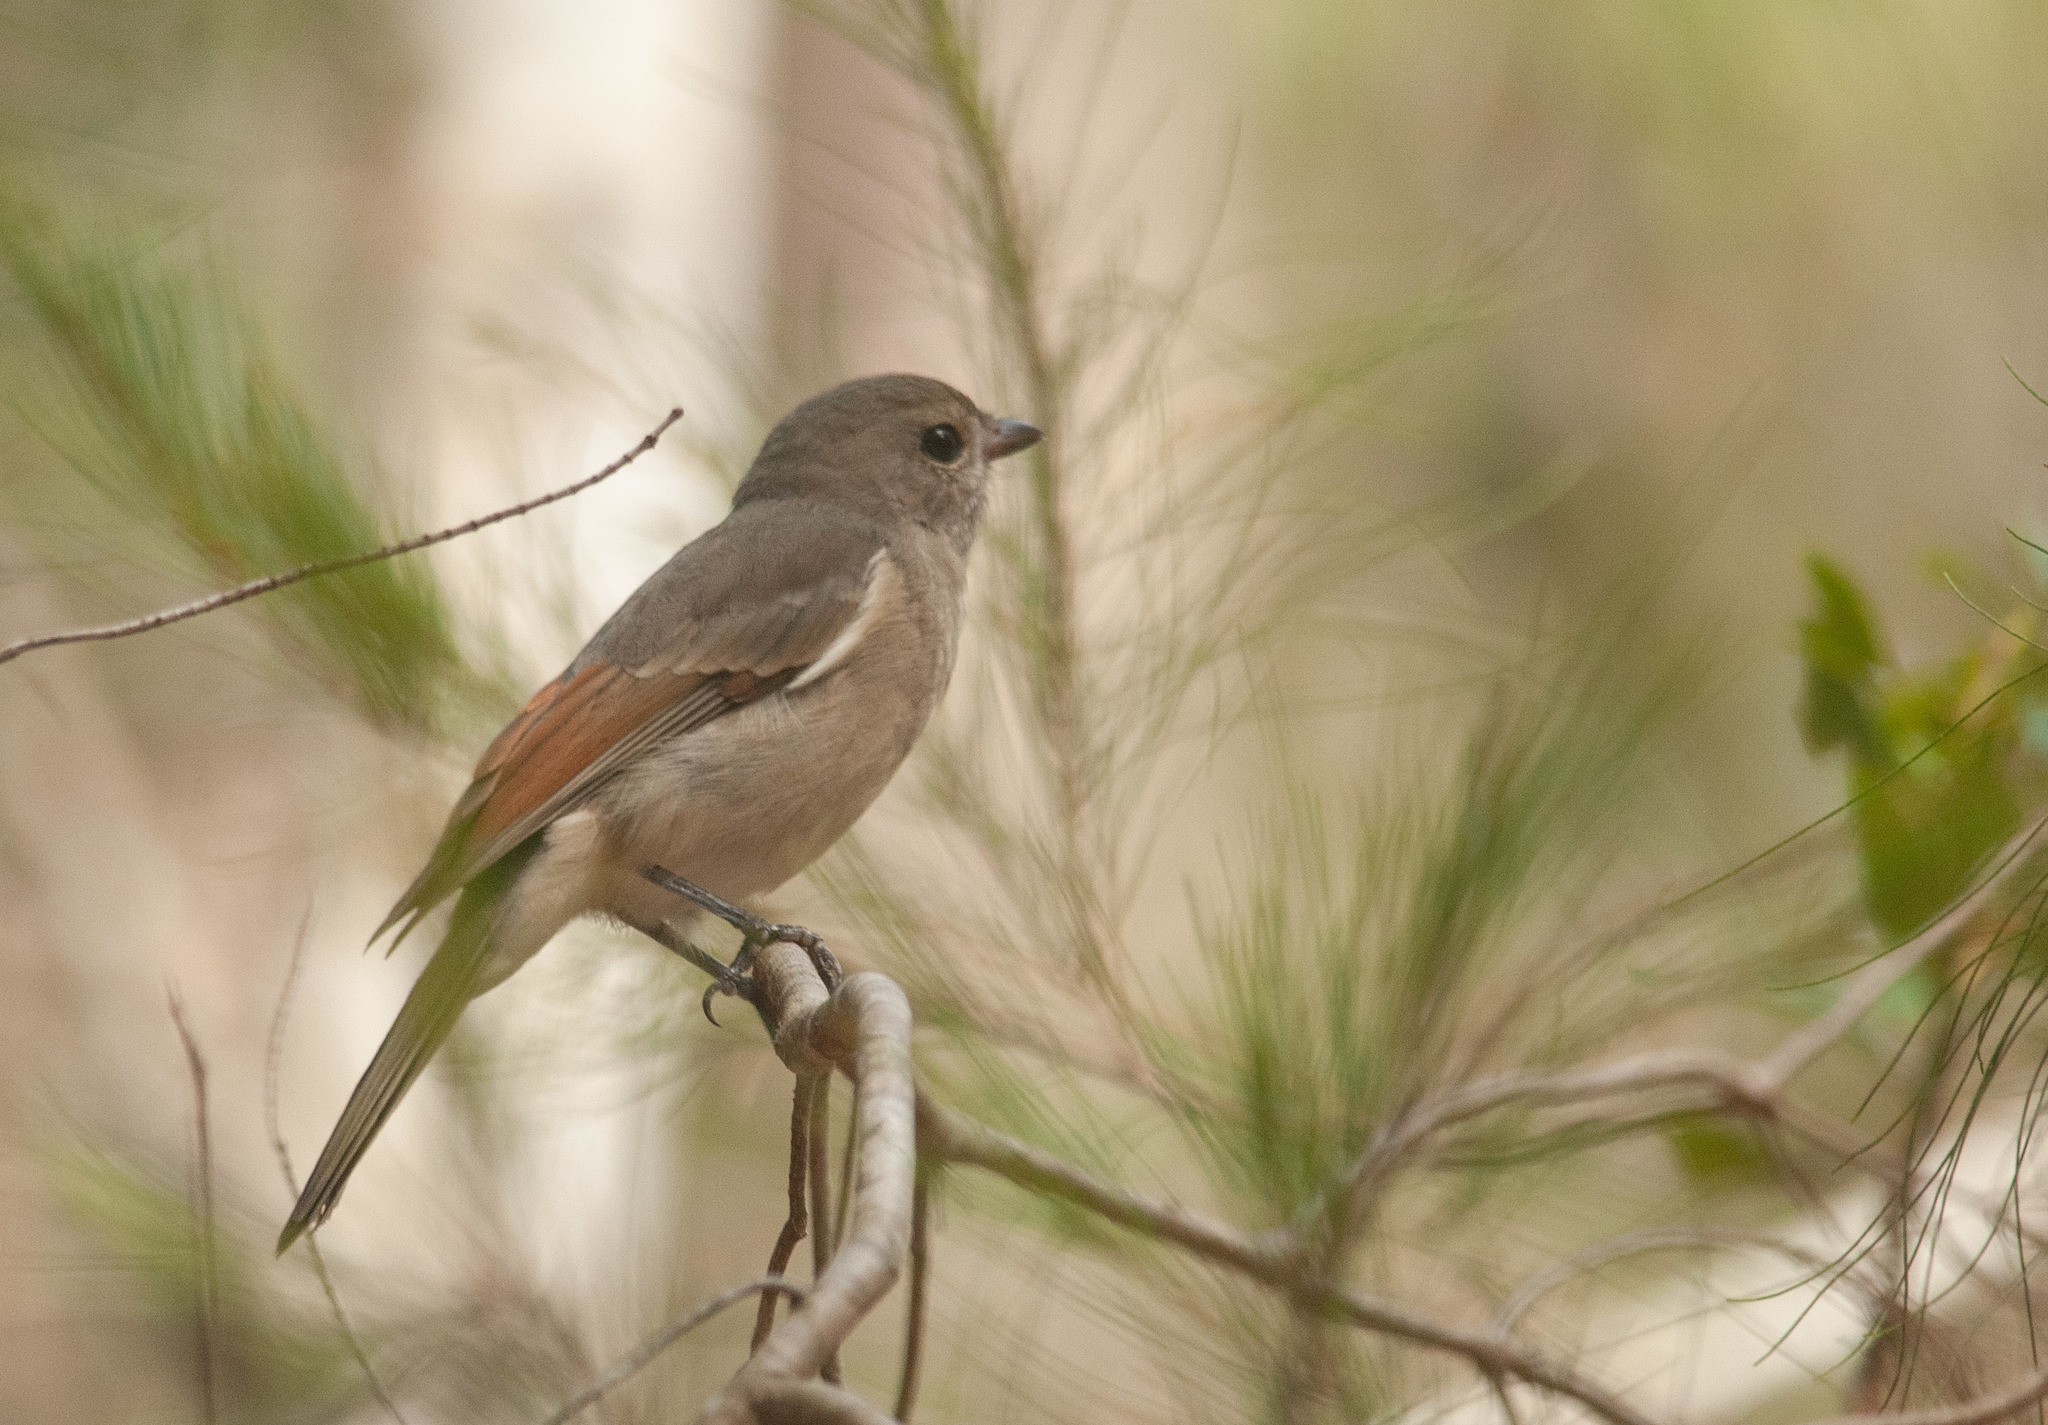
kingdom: Animalia
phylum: Chordata
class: Aves
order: Passeriformes
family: Pachycephalidae
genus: Pachycephala
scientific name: Pachycephala pectoralis
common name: Australian golden whistler
